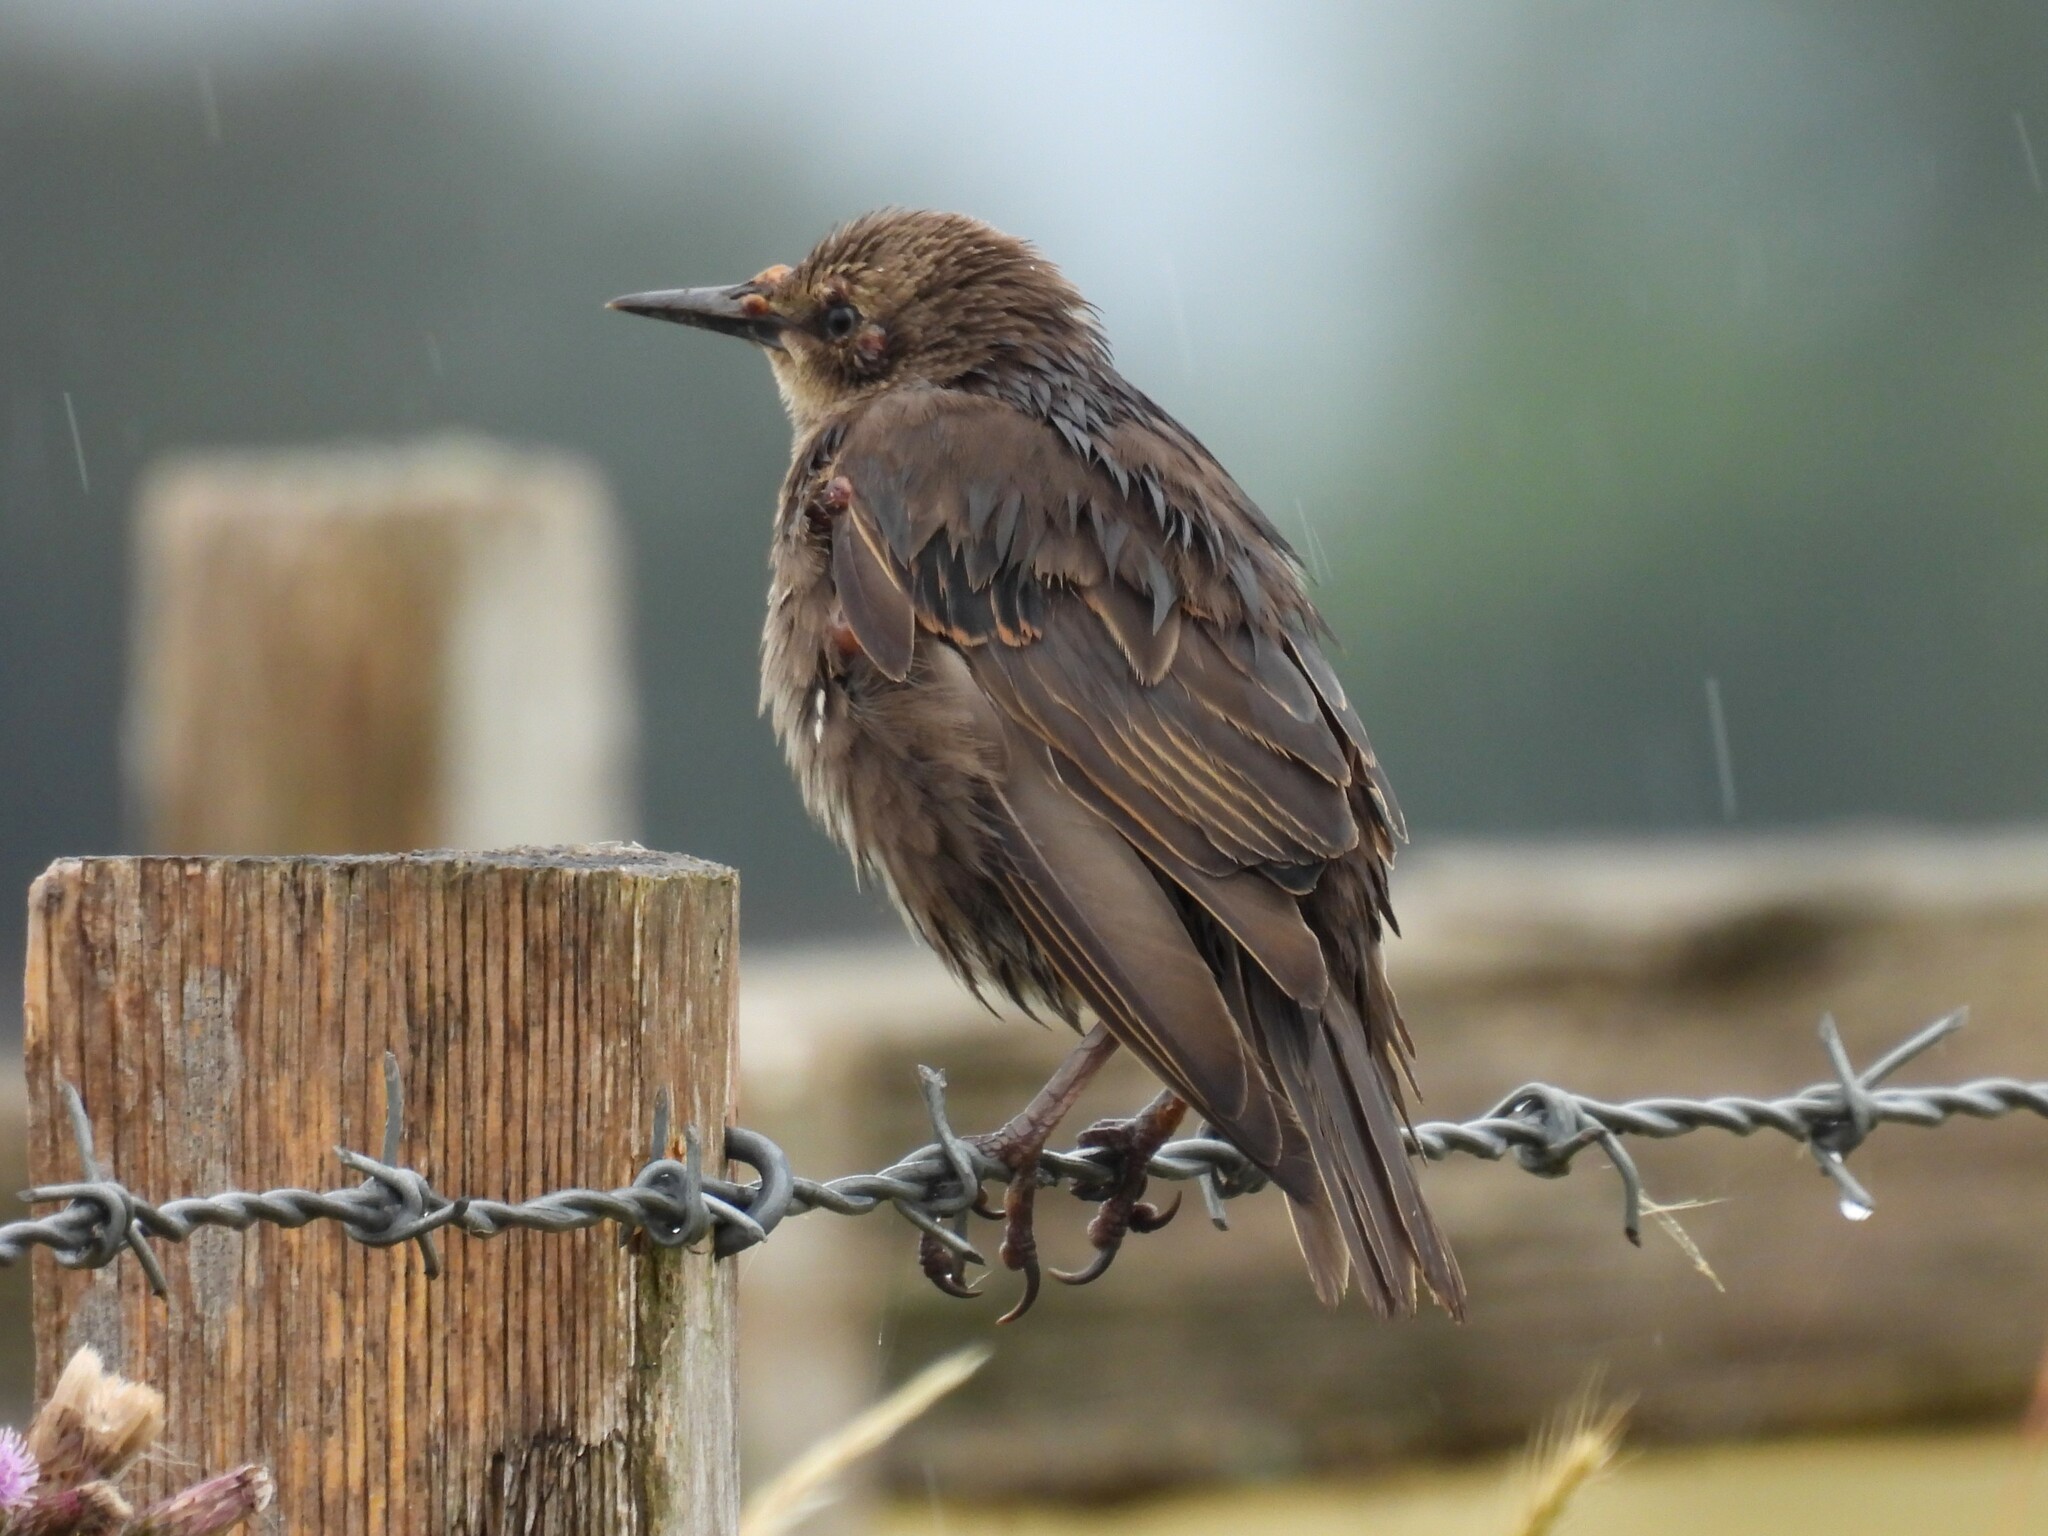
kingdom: Animalia
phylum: Chordata
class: Aves
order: Passeriformes
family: Sturnidae
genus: Sturnus
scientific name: Sturnus vulgaris
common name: Common starling
